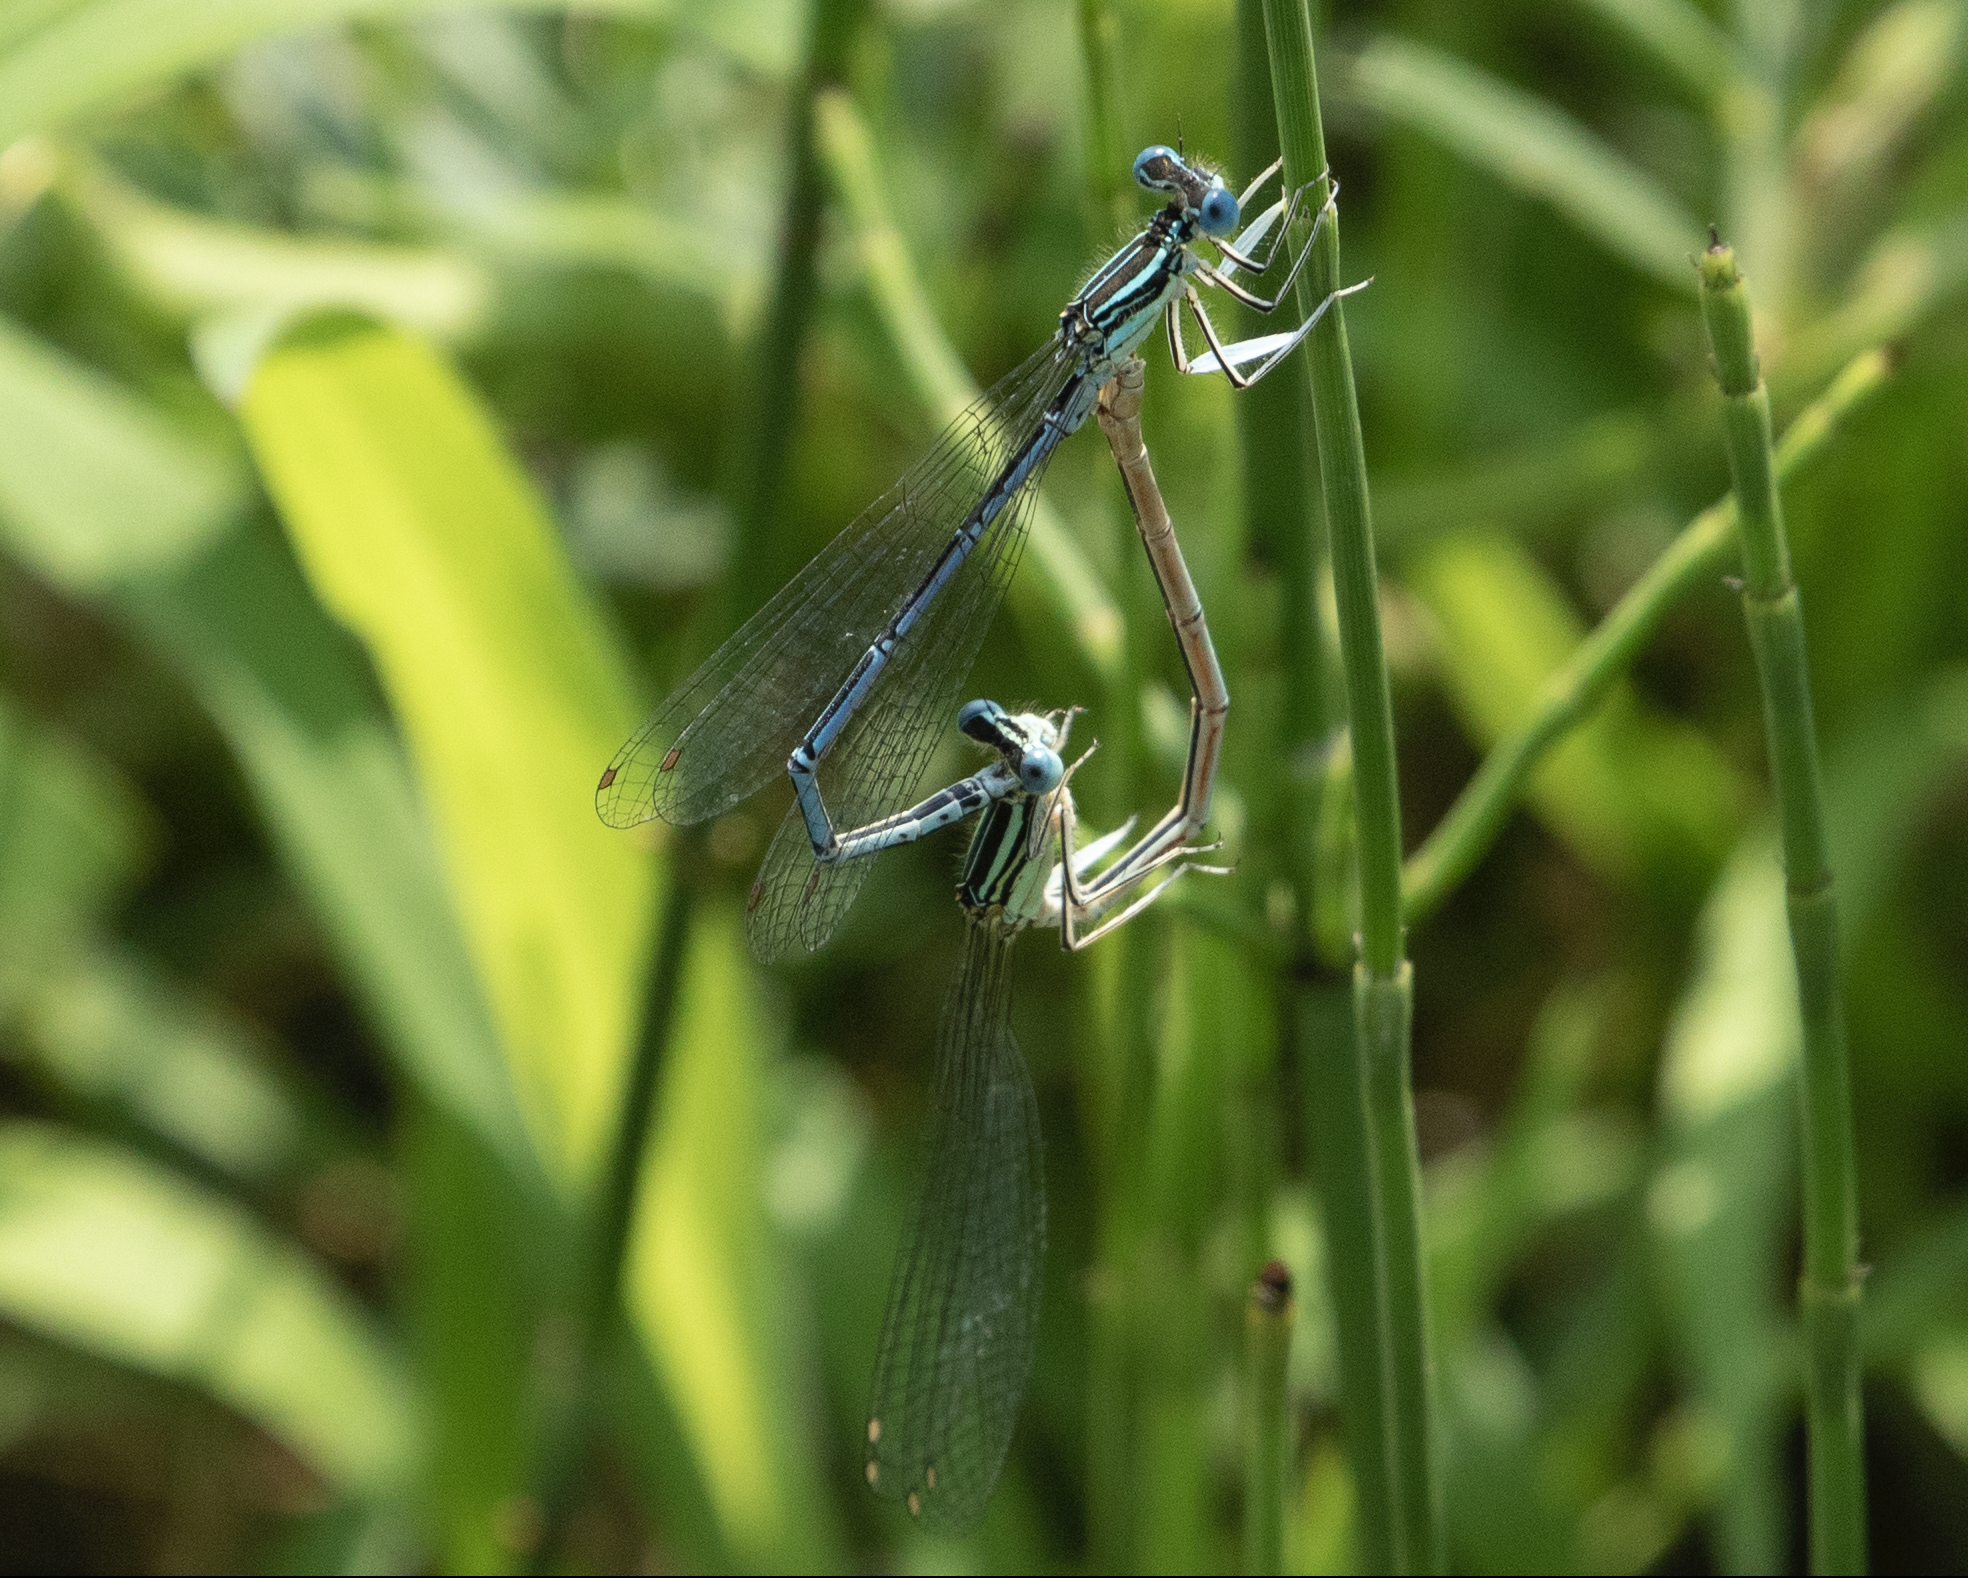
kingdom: Animalia
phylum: Arthropoda
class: Insecta
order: Odonata
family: Platycnemididae
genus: Platycnemis
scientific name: Platycnemis pennipes
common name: White-legged damselfly
